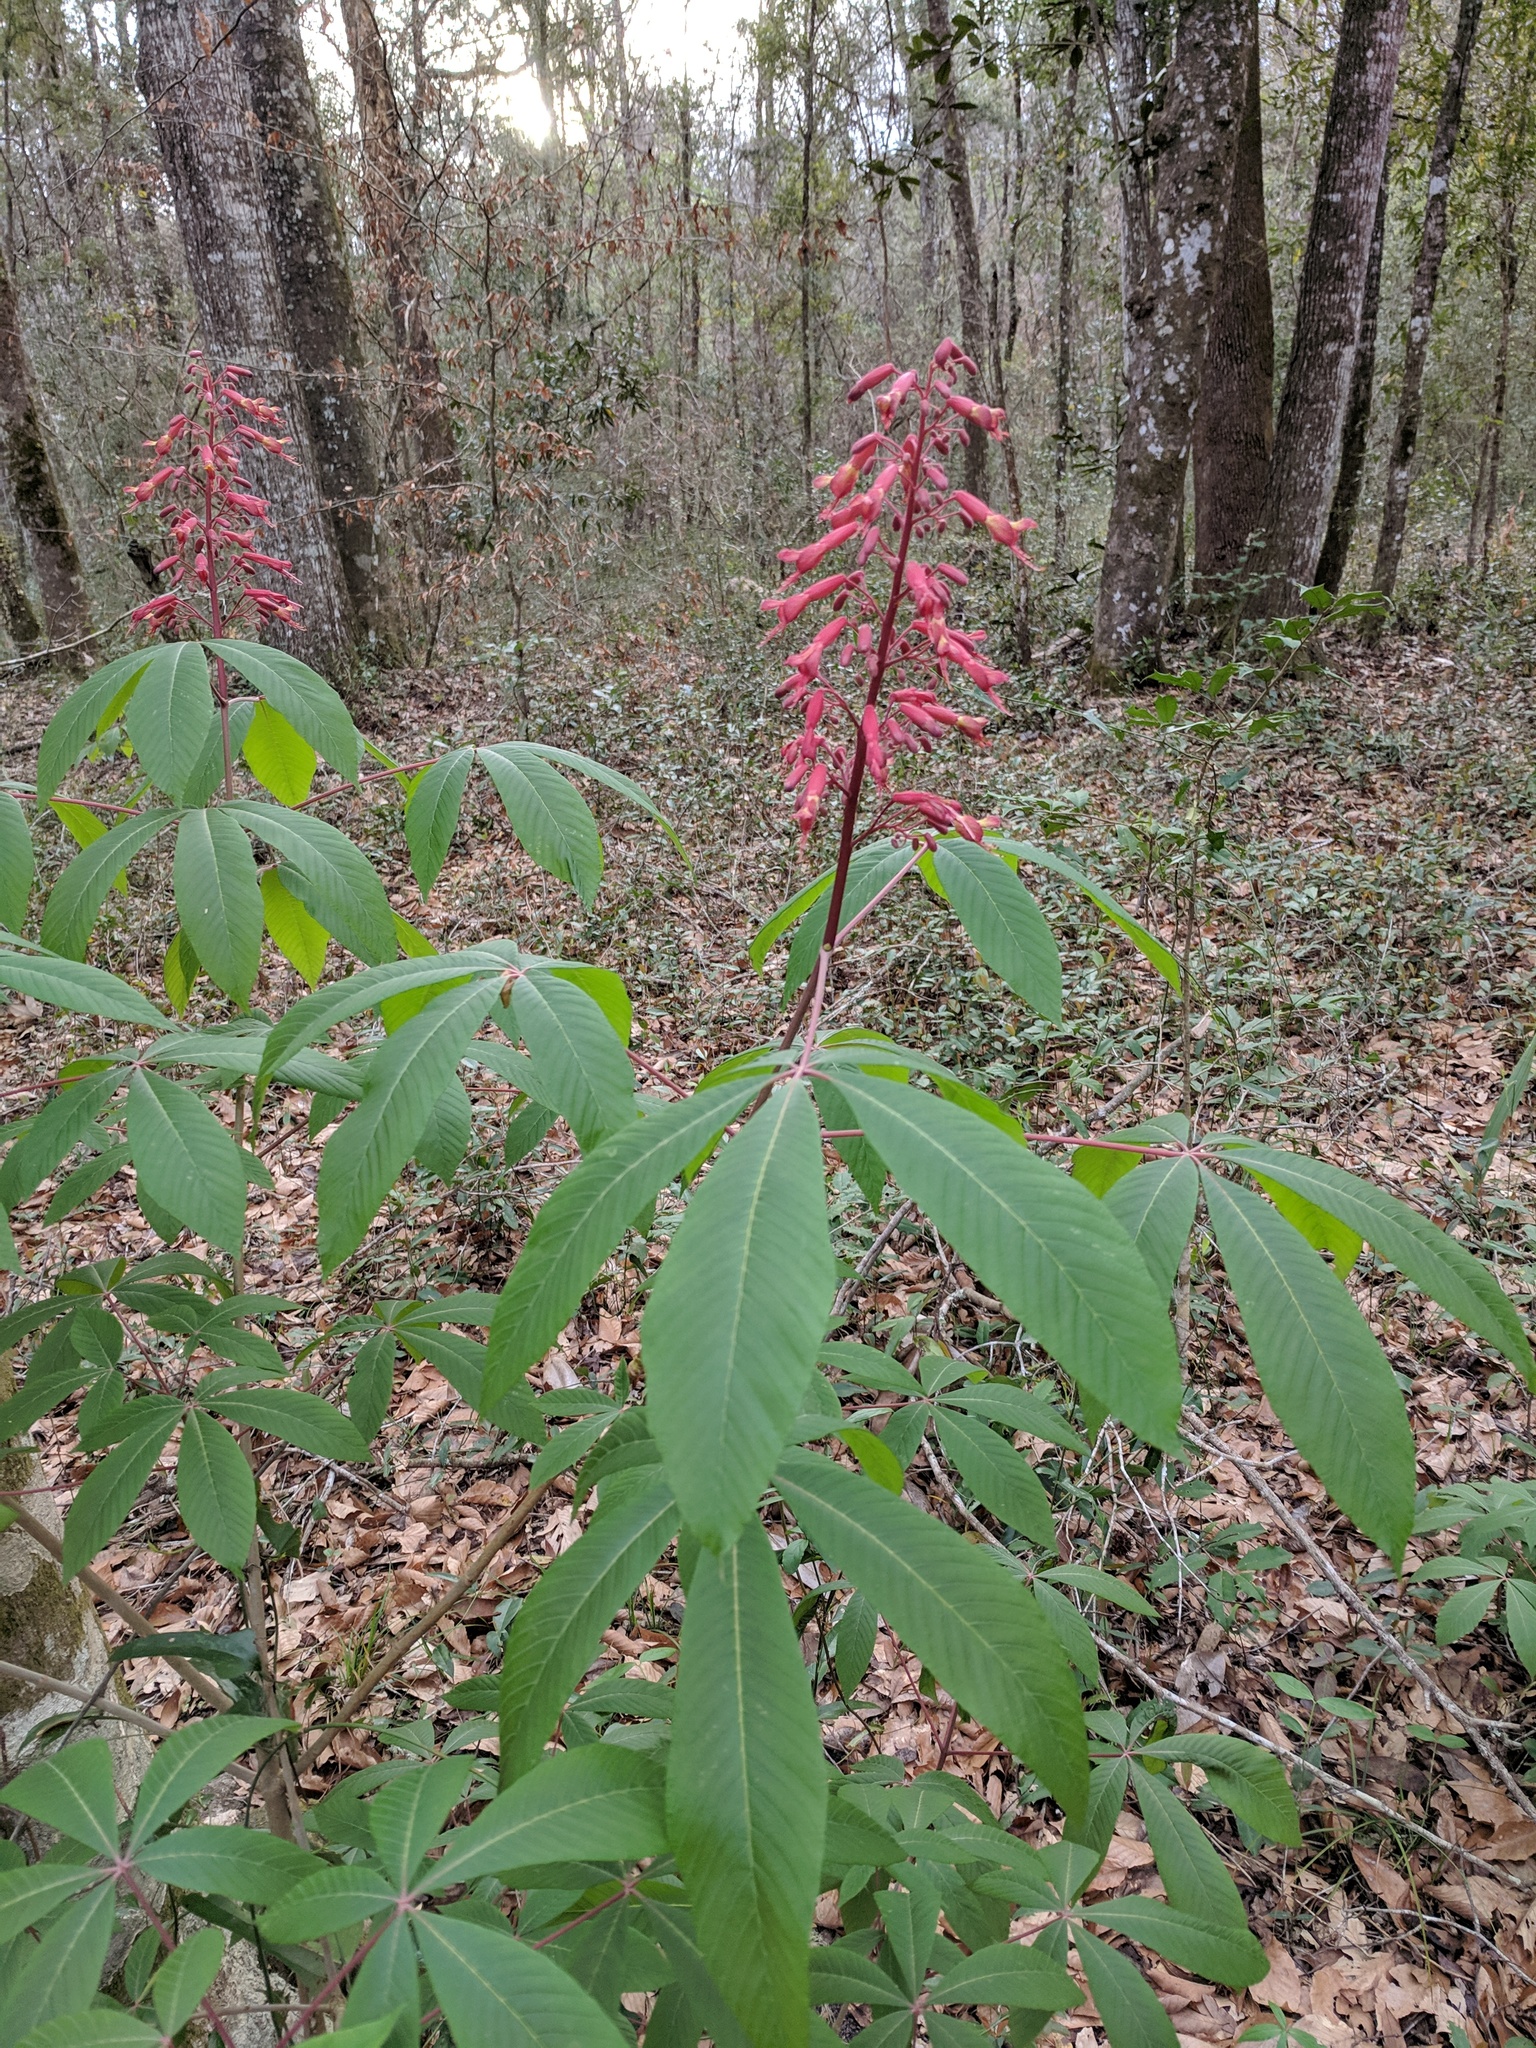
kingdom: Plantae
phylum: Tracheophyta
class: Magnoliopsida
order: Sapindales
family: Sapindaceae
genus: Aesculus
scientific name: Aesculus pavia
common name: Red buckeye
